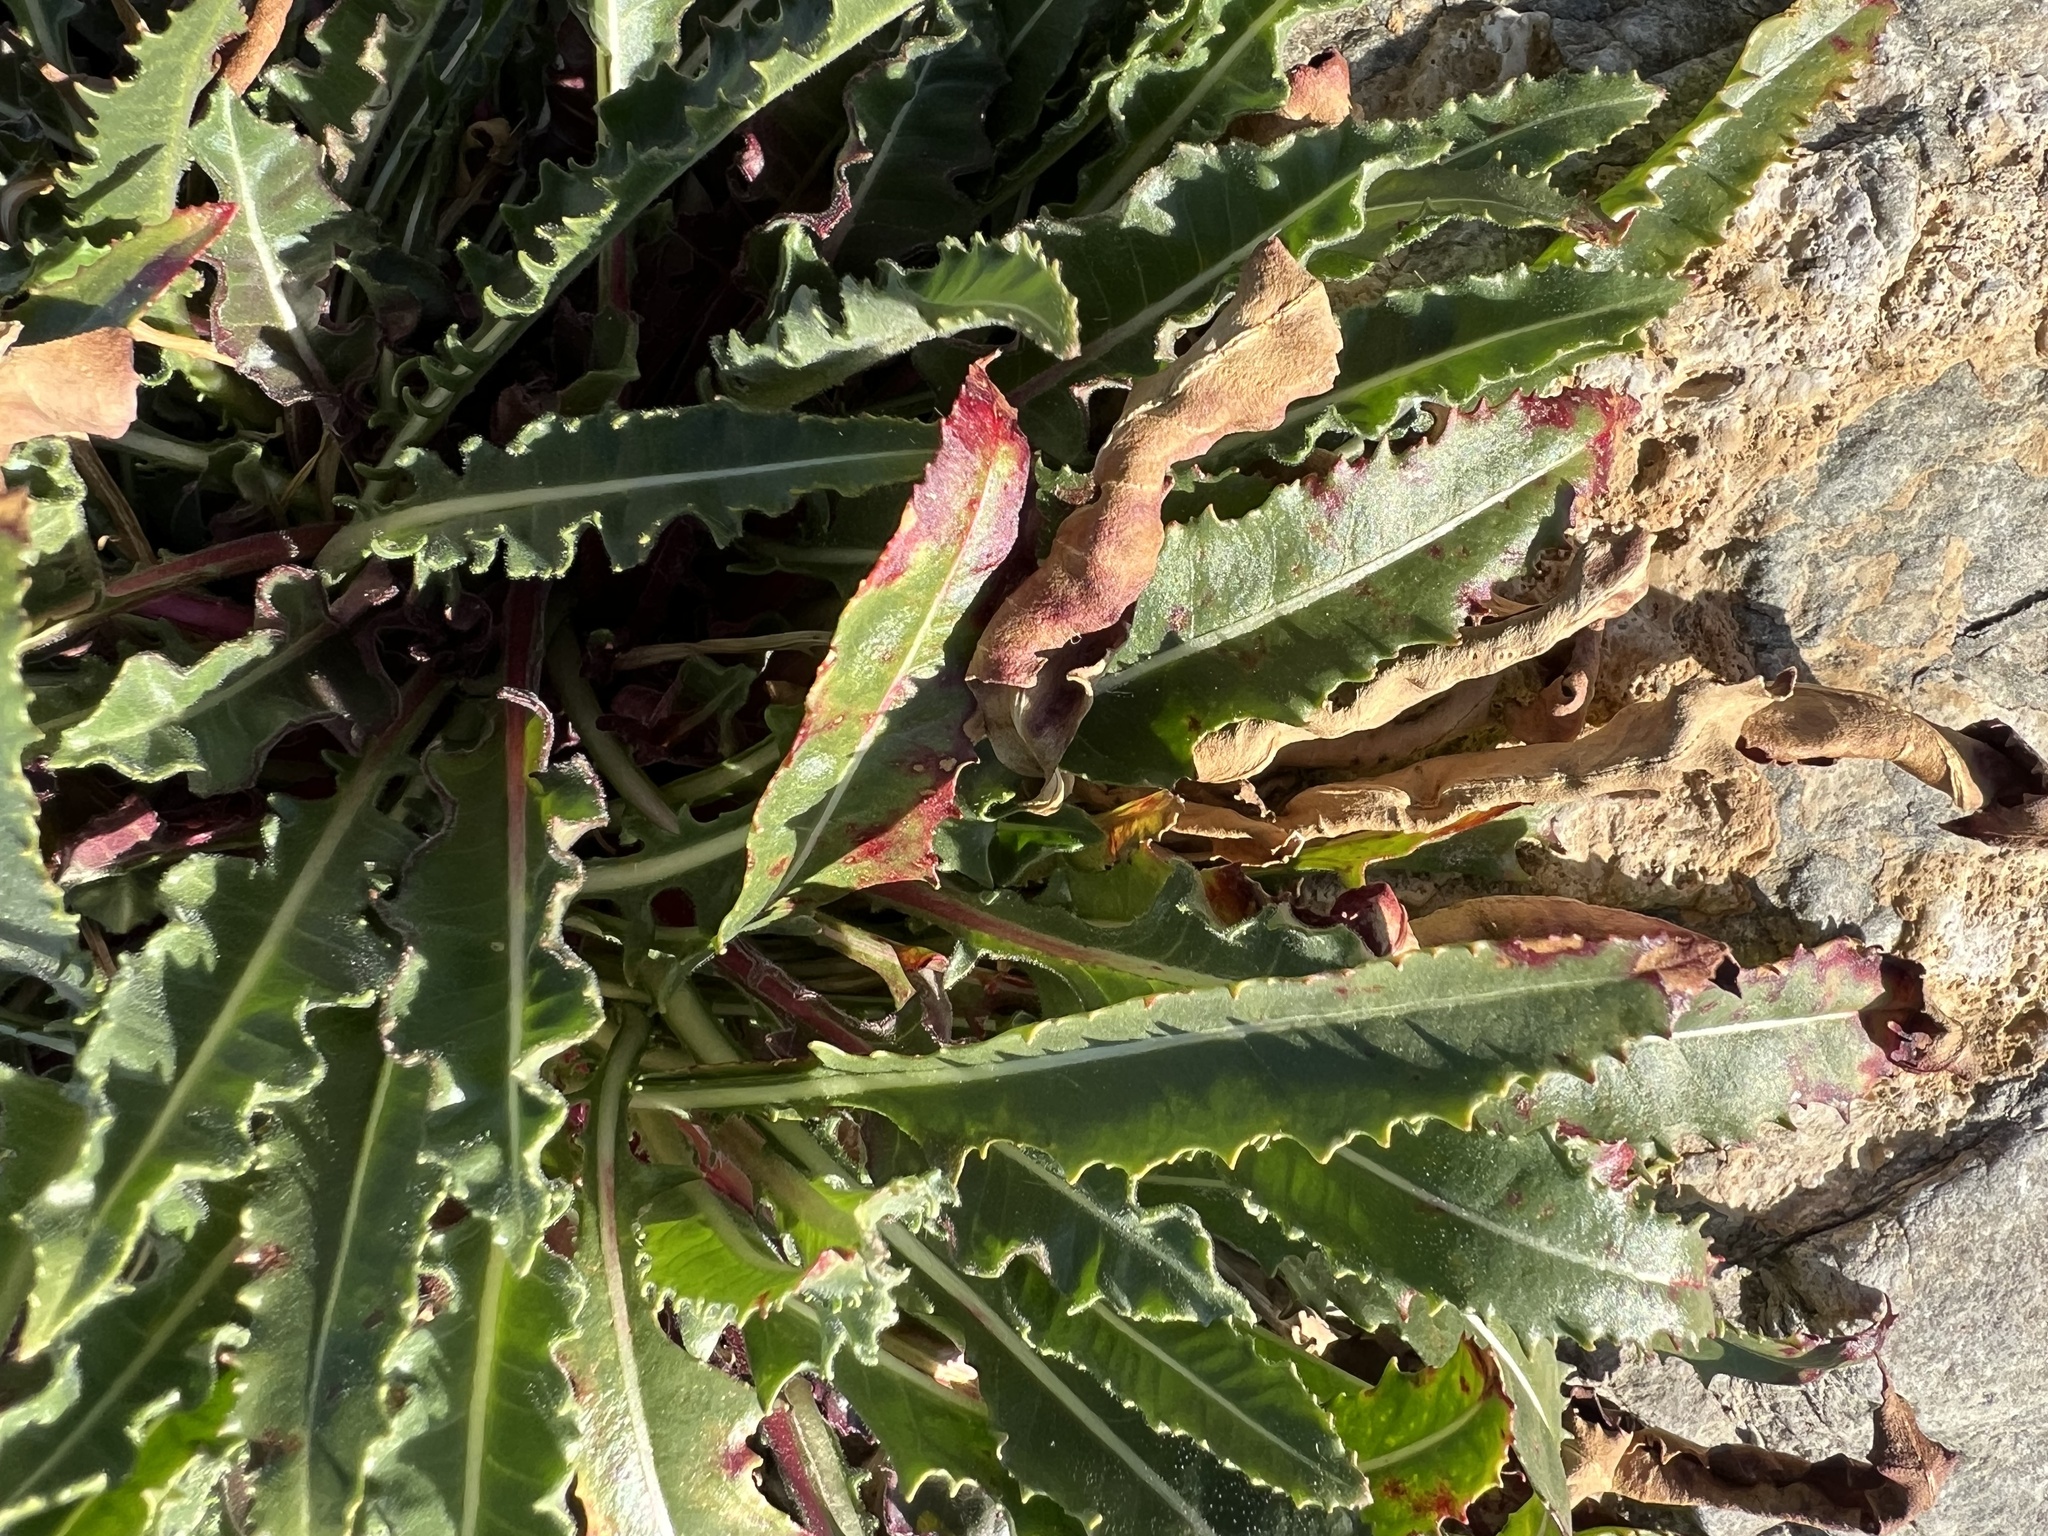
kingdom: Plantae
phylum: Tracheophyta
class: Magnoliopsida
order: Myrtales
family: Onagraceae
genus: Oenothera
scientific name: Oenothera cespitosa
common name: Tufted evening-primrose
